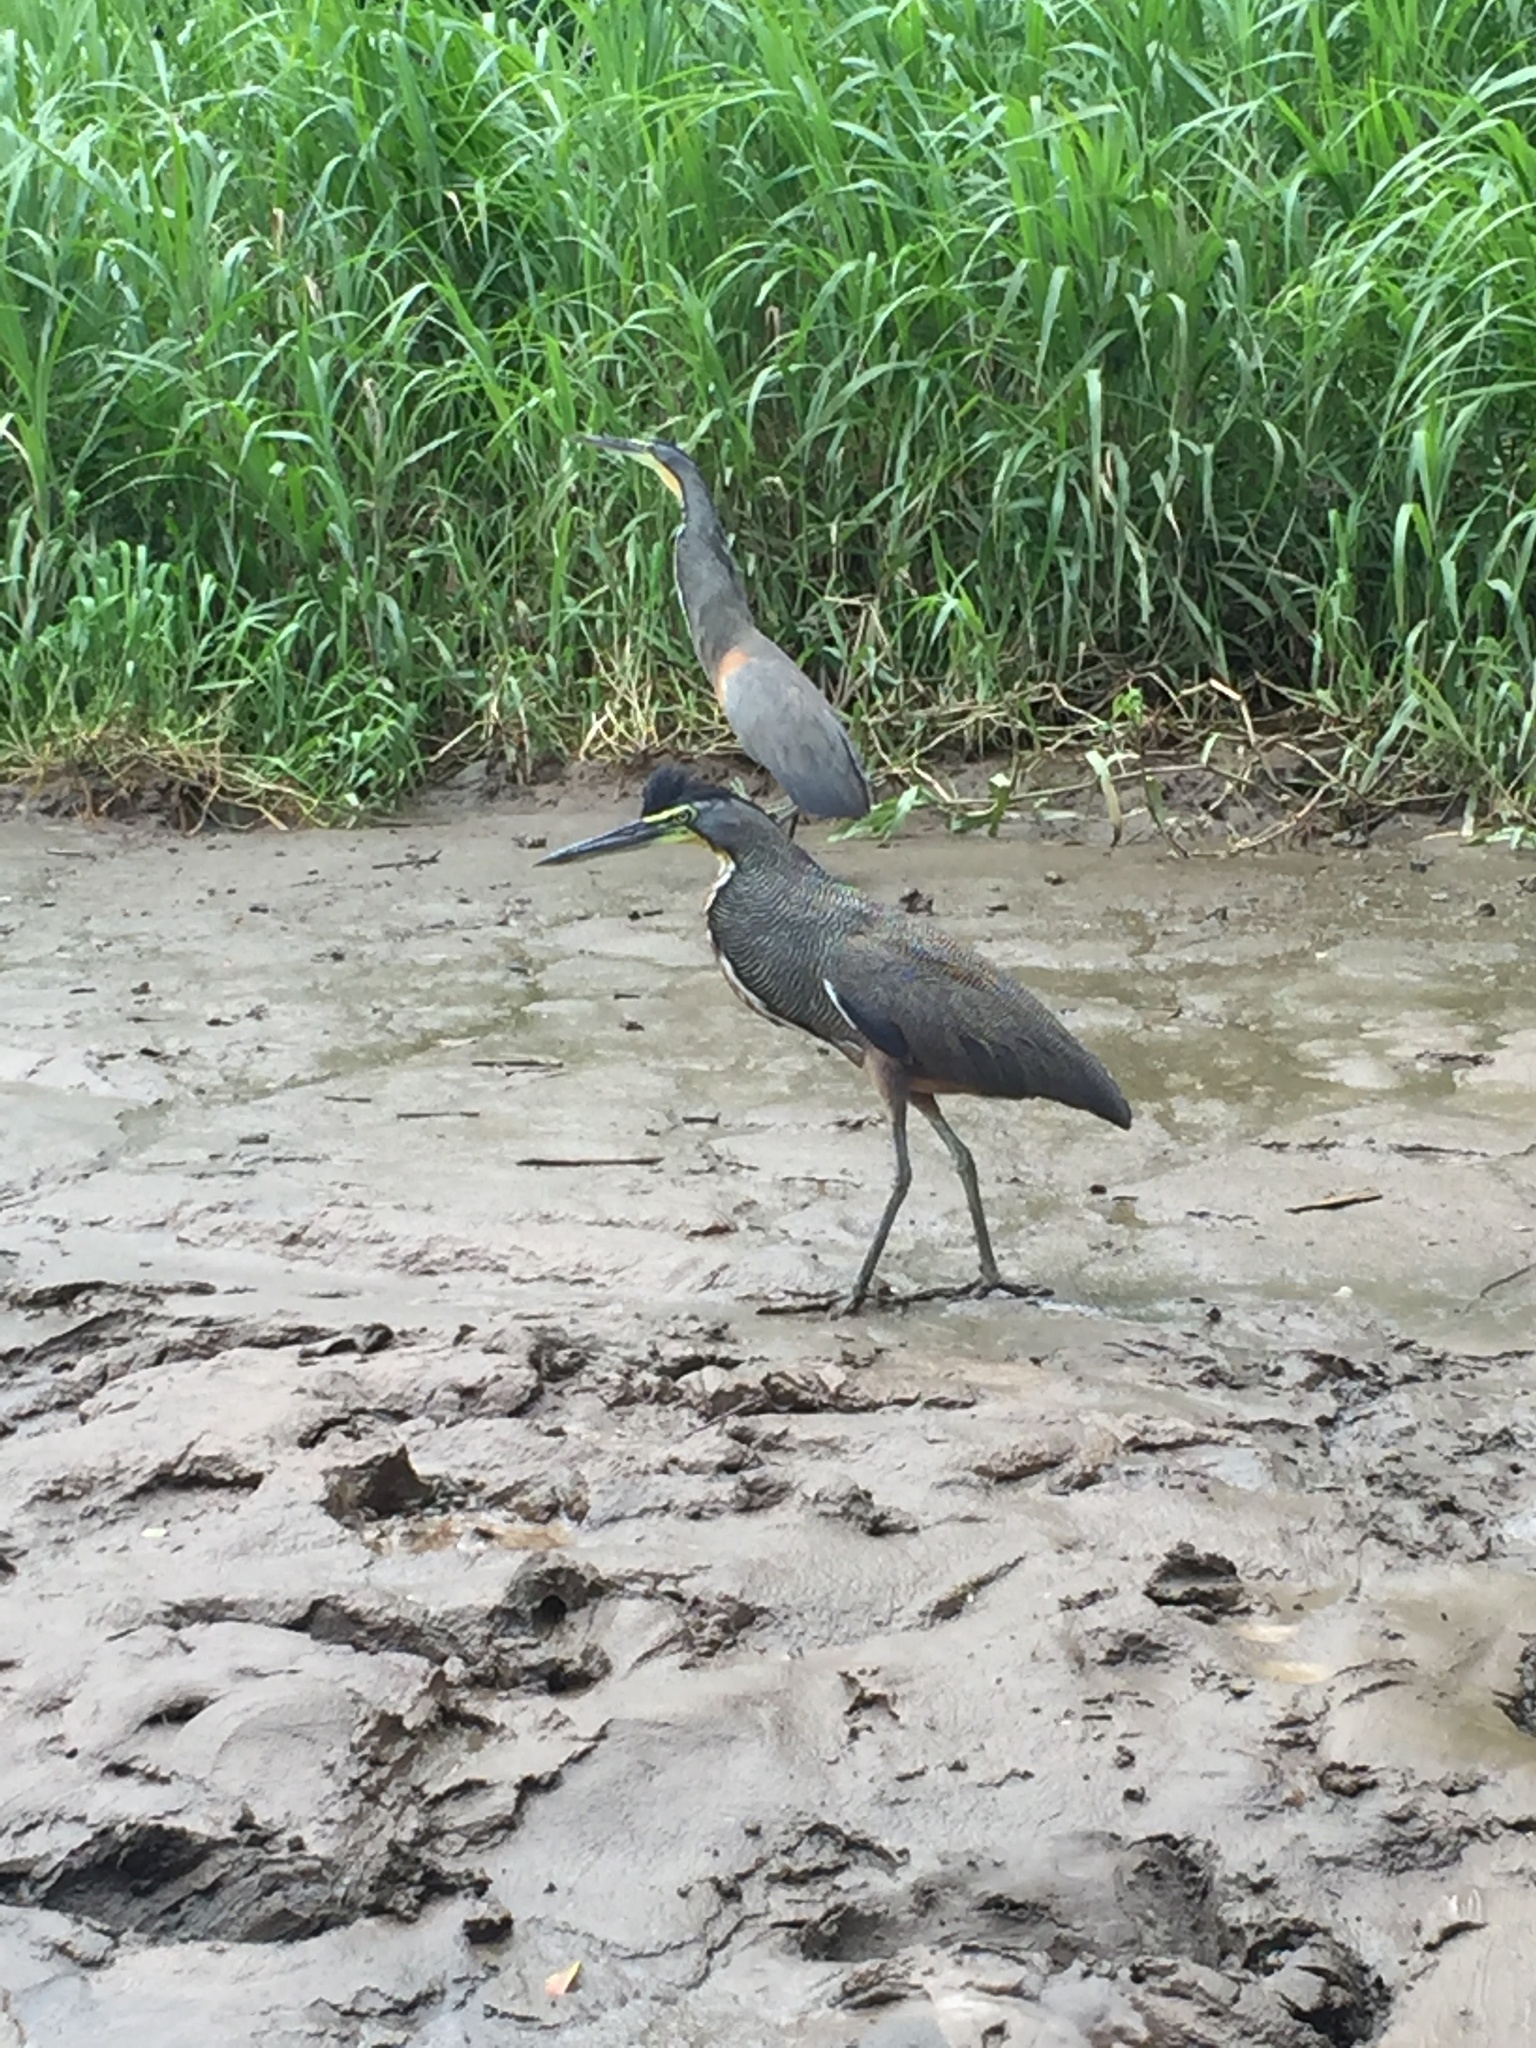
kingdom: Animalia
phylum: Chordata
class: Aves
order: Pelecaniformes
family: Ardeidae
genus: Tigrisoma
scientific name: Tigrisoma mexicanum
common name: Bare-throated tiger-heron
